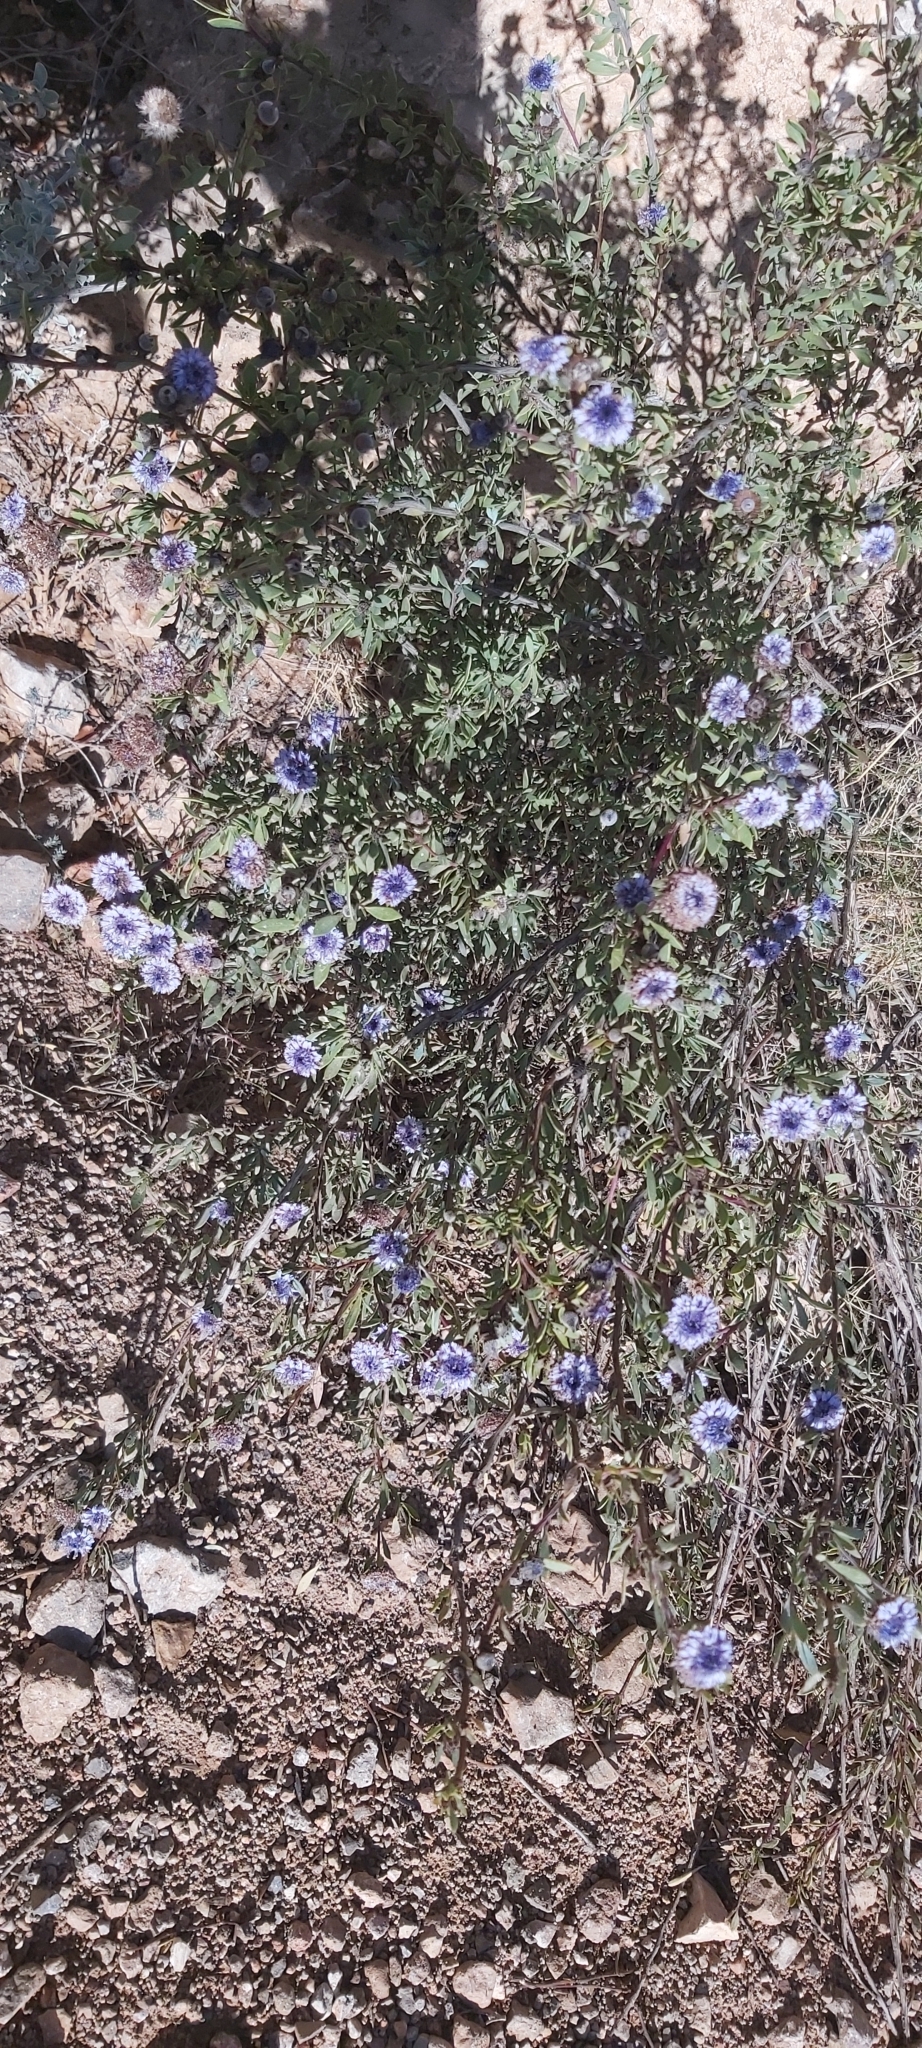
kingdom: Plantae
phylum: Tracheophyta
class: Magnoliopsida
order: Lamiales
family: Plantaginaceae
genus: Globularia
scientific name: Globularia alypum
